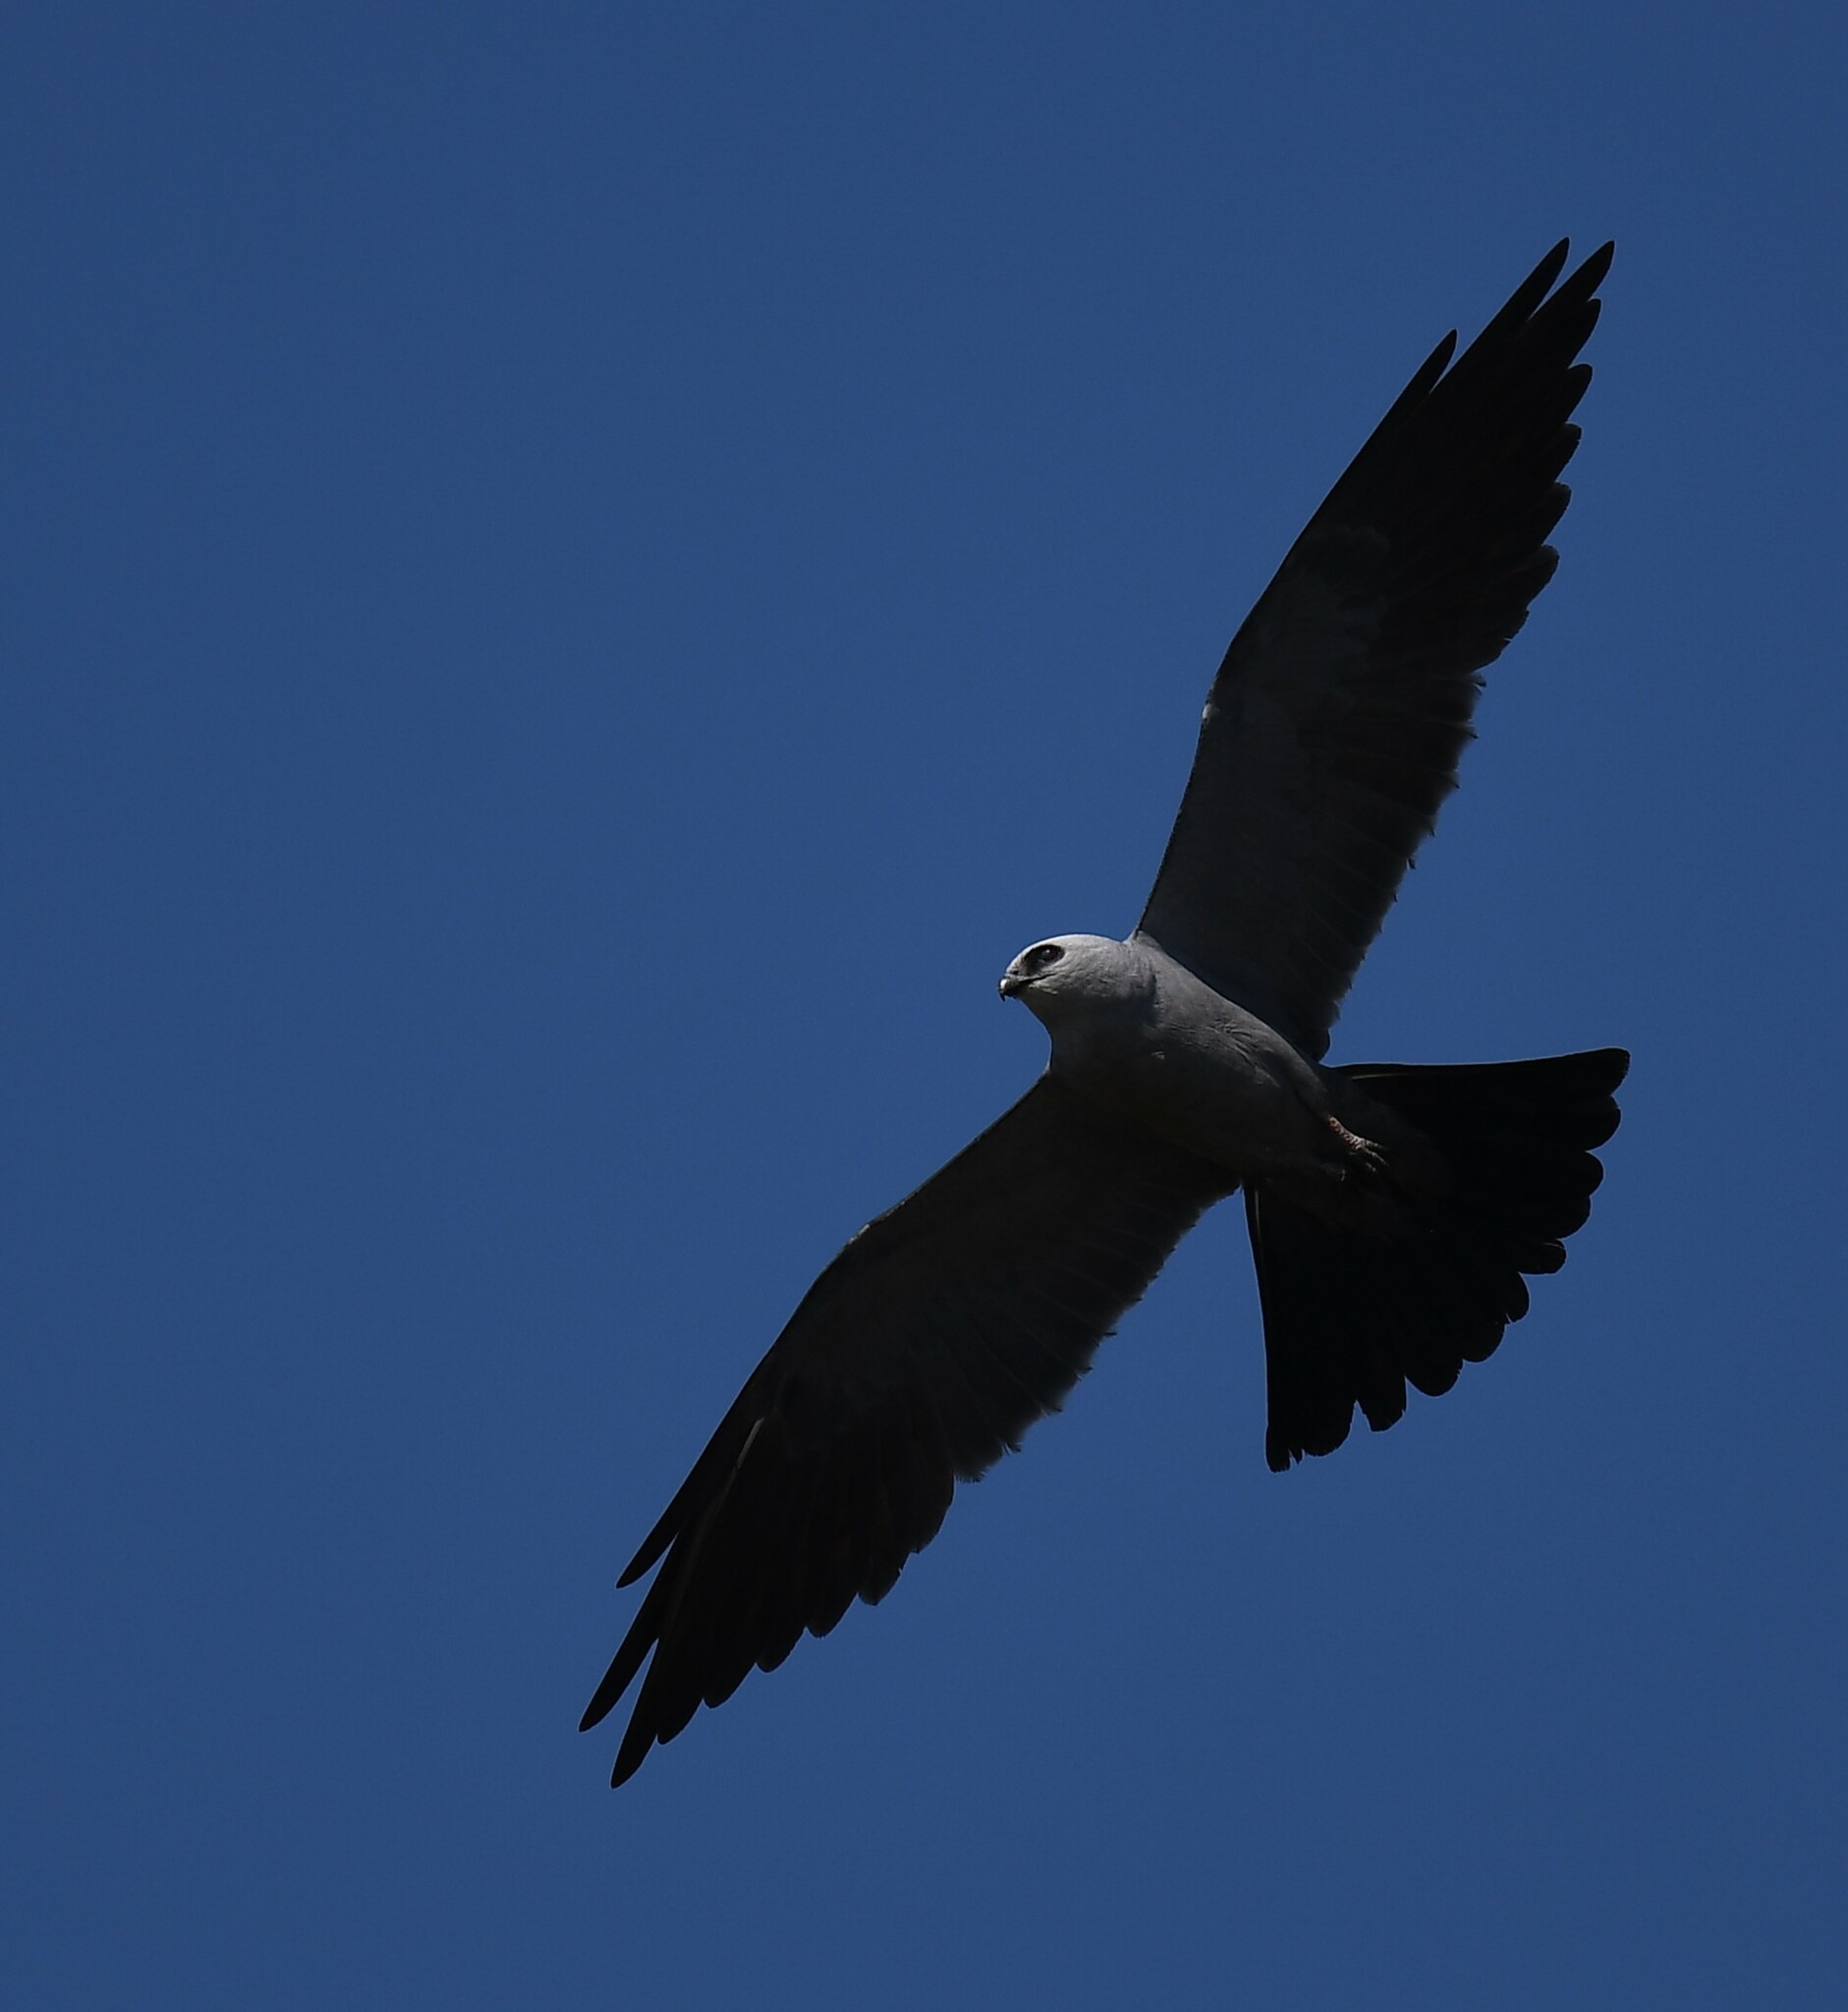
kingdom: Animalia
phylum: Chordata
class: Aves
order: Accipitriformes
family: Accipitridae
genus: Ictinia
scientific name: Ictinia mississippiensis
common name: Mississippi kite
